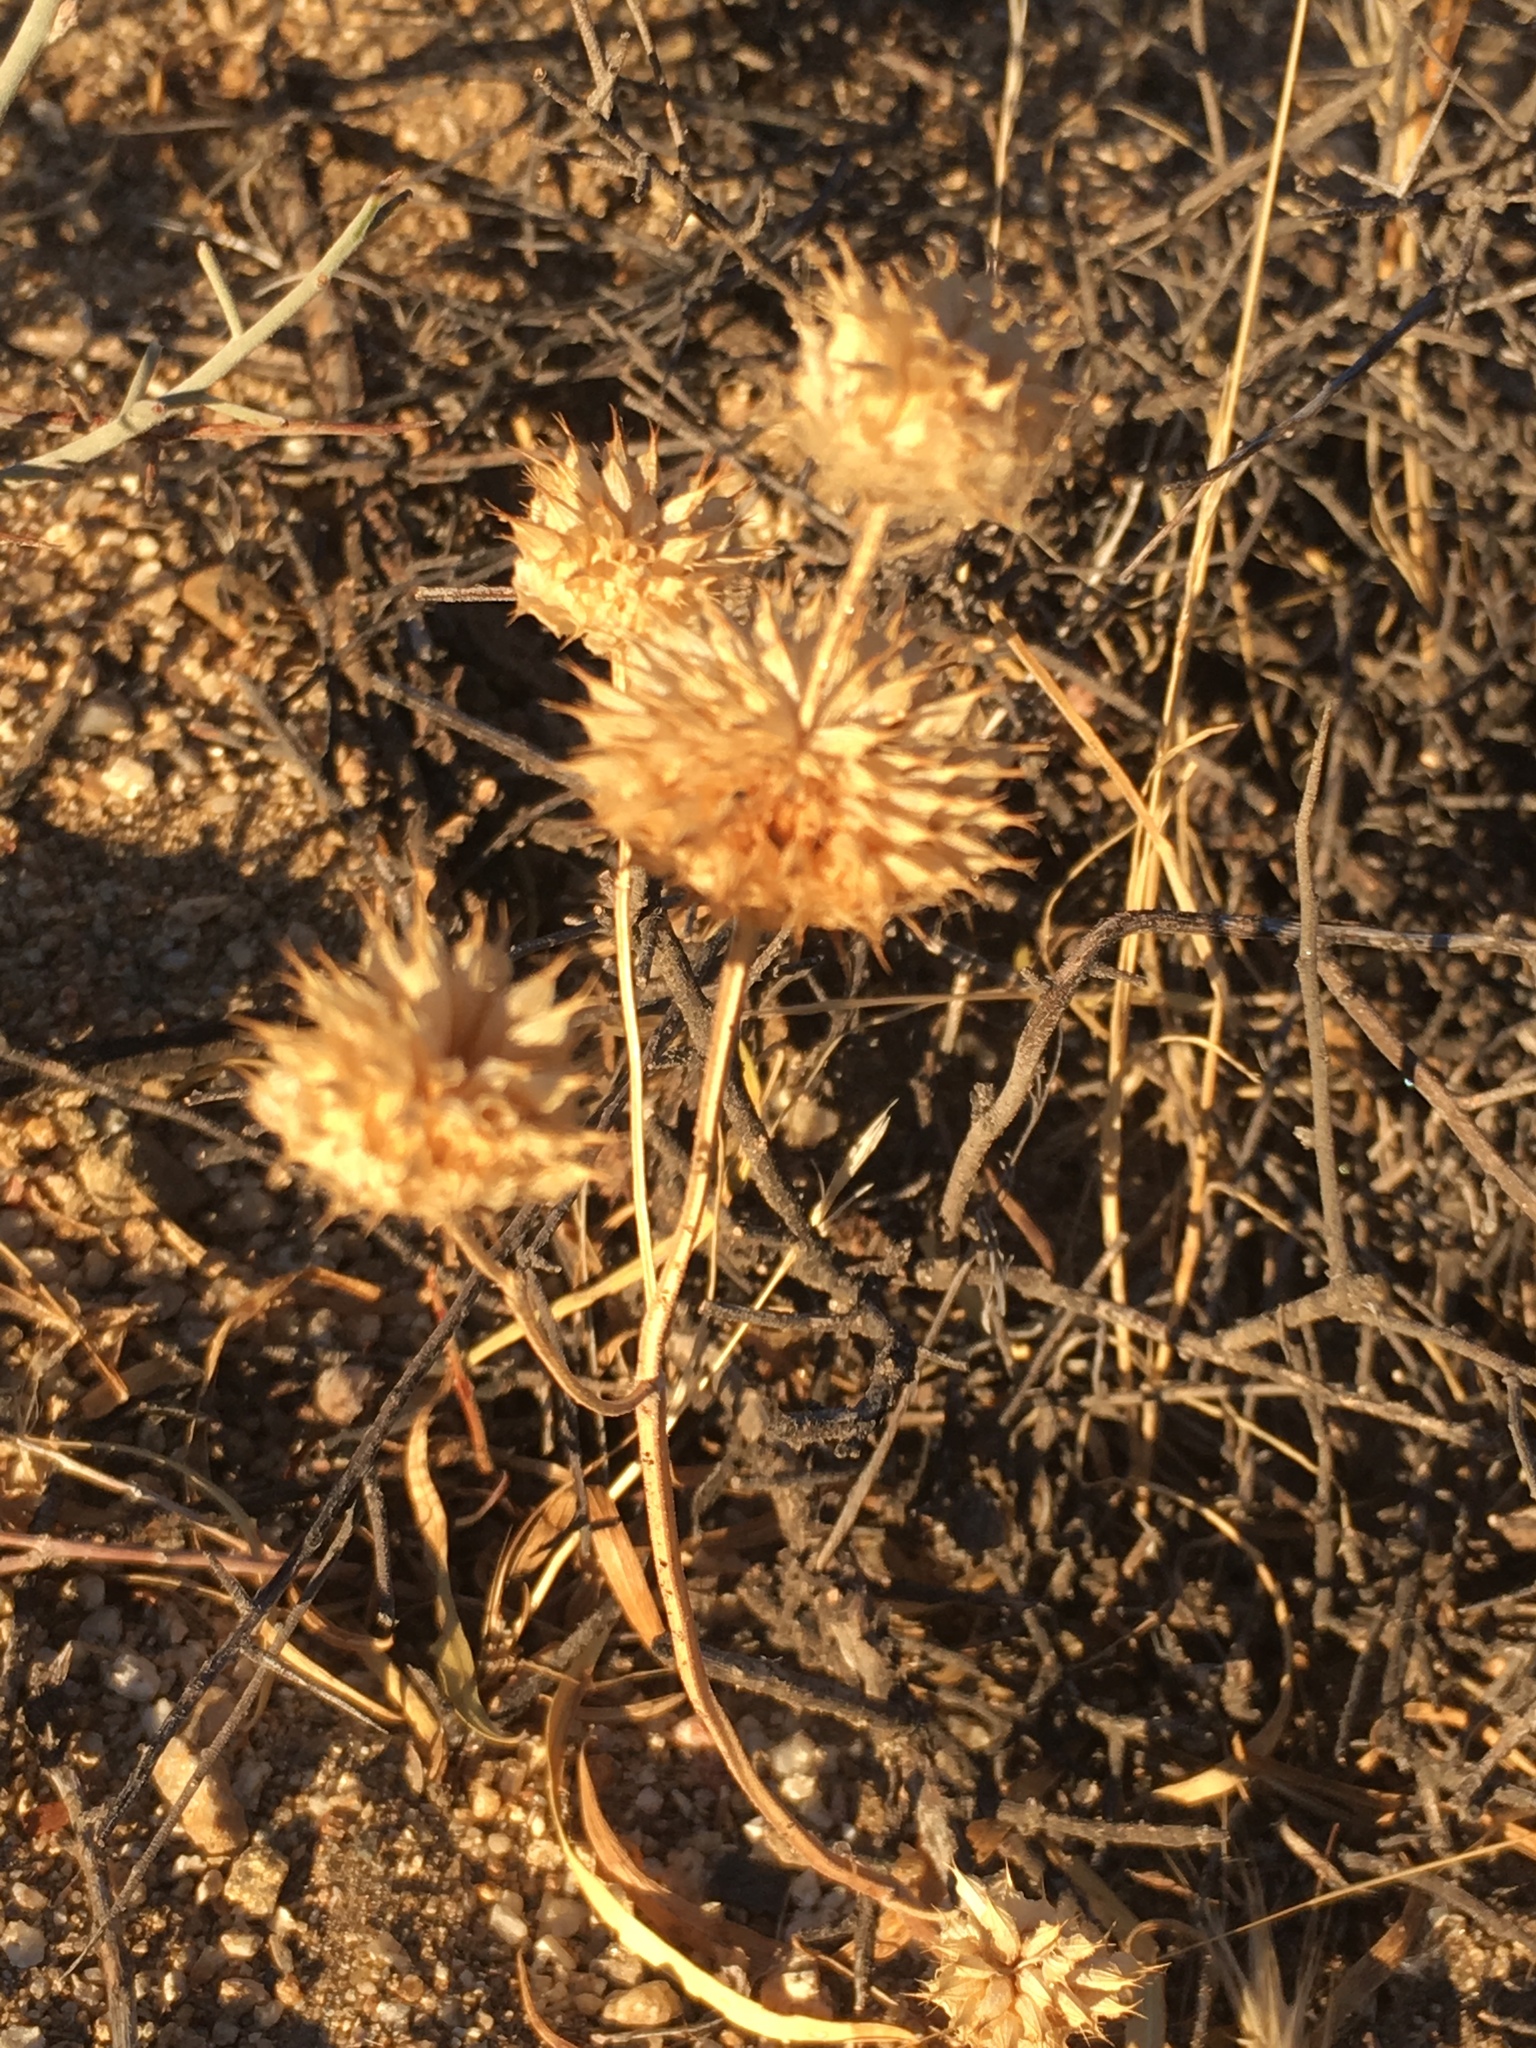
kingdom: Plantae
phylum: Tracheophyta
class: Magnoliopsida
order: Lamiales
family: Lamiaceae
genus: Salvia
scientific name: Salvia columbariae
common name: Chia
